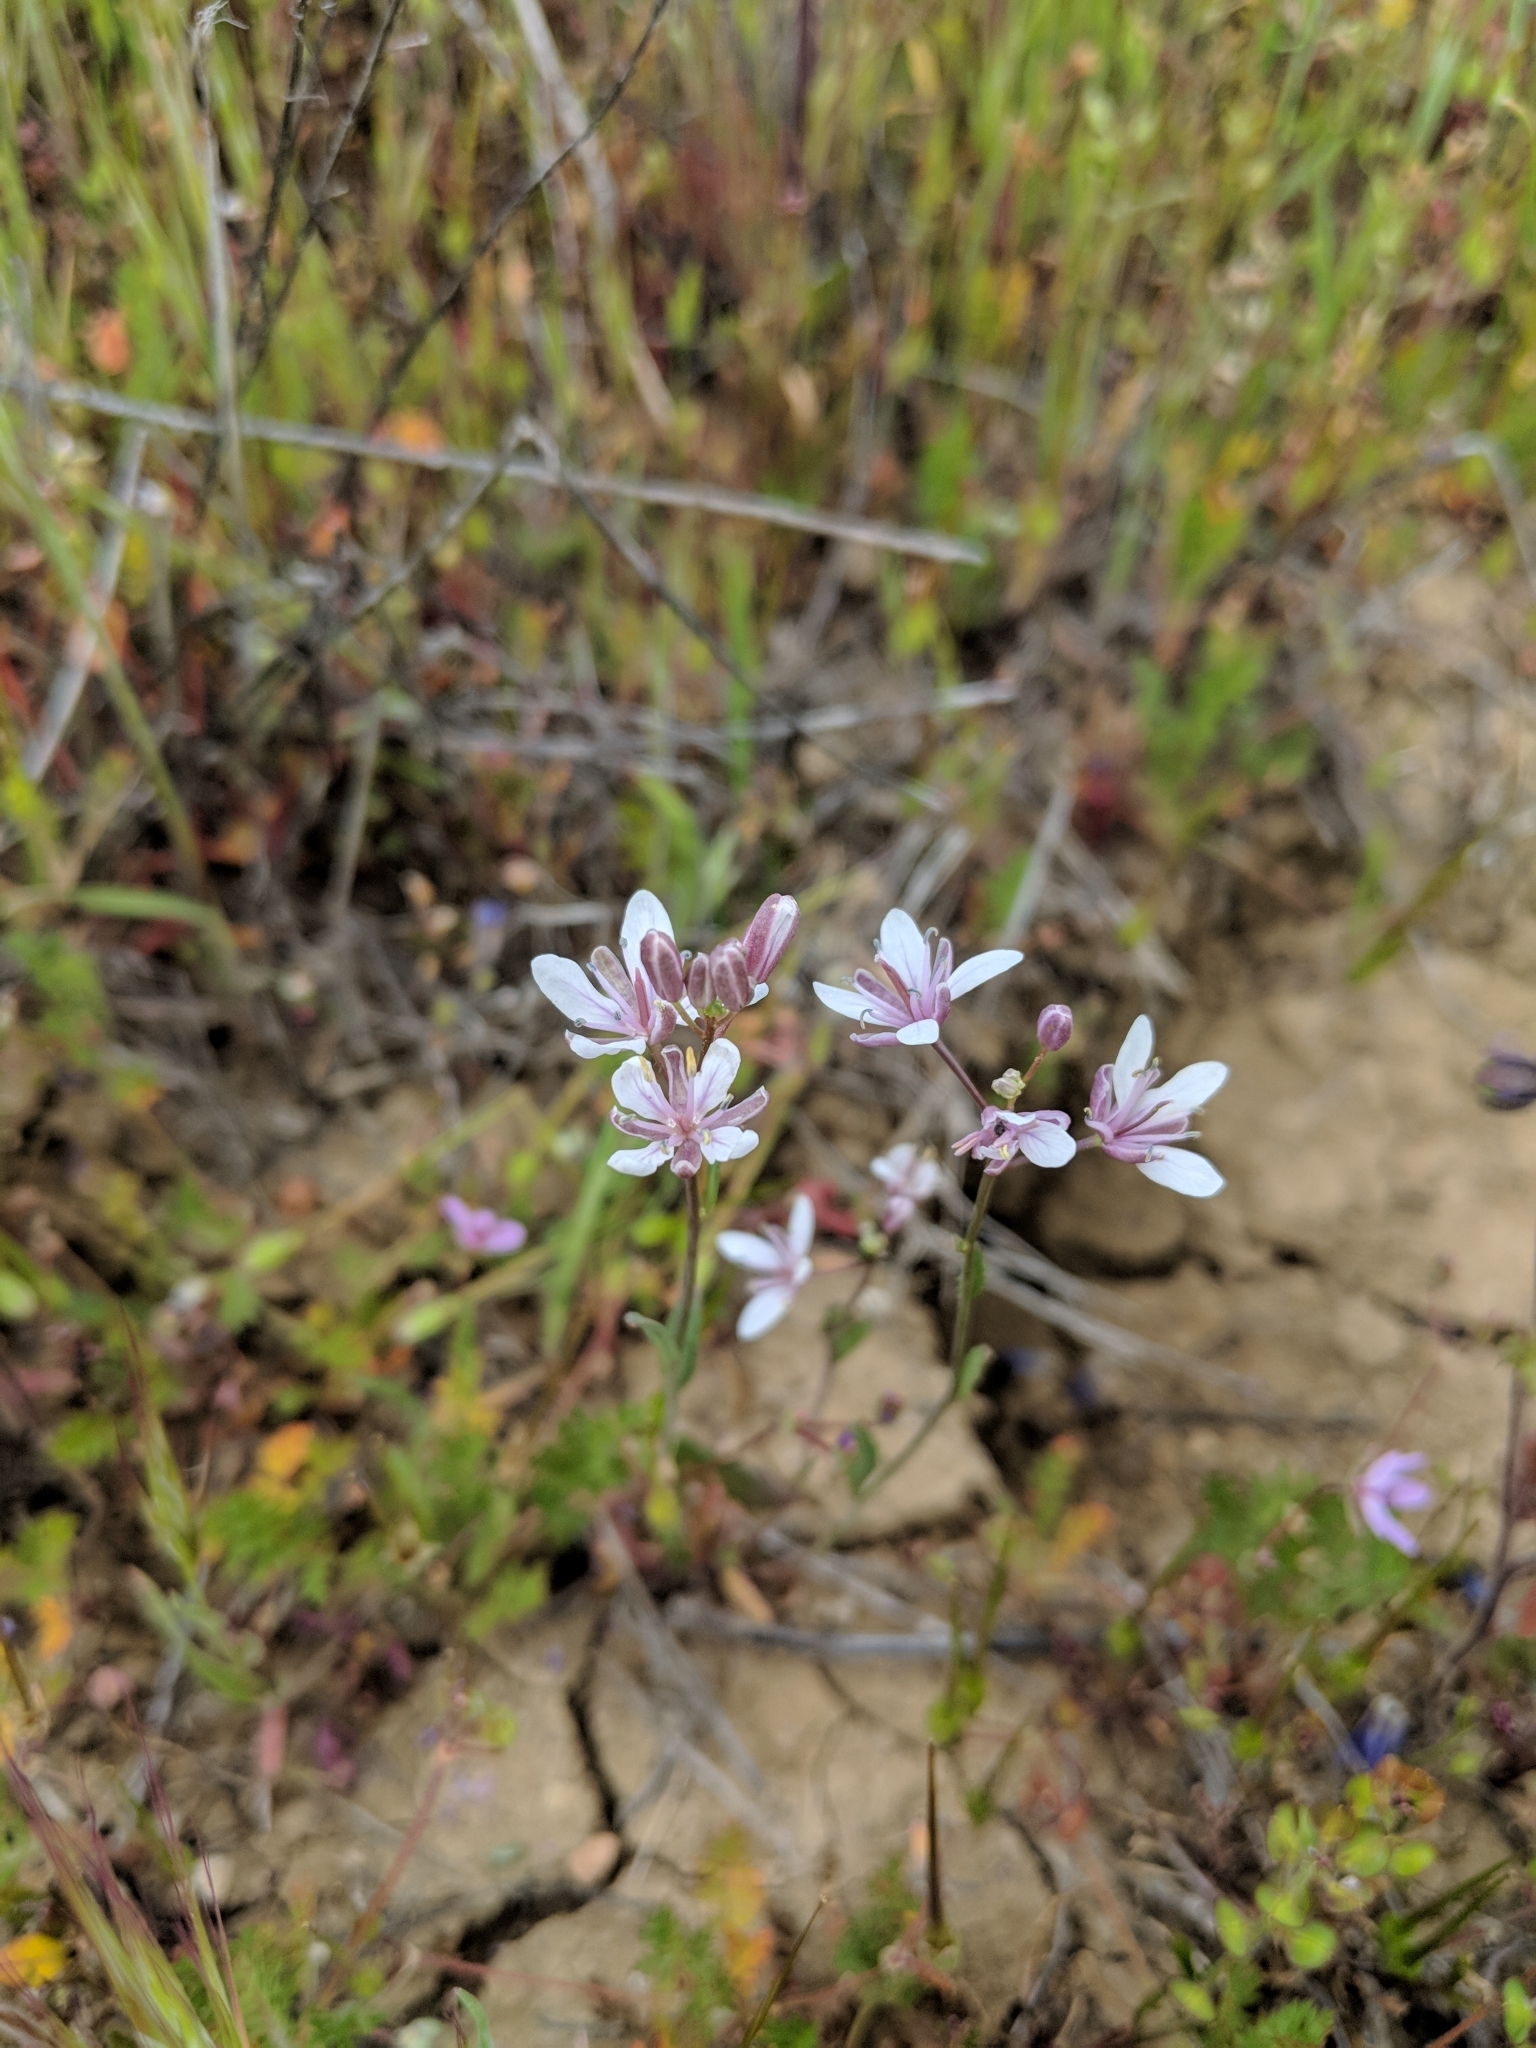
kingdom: Plantae
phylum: Tracheophyta
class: Magnoliopsida
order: Brassicales
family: Brassicaceae
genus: Streptanthus
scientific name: Streptanthus anceps
